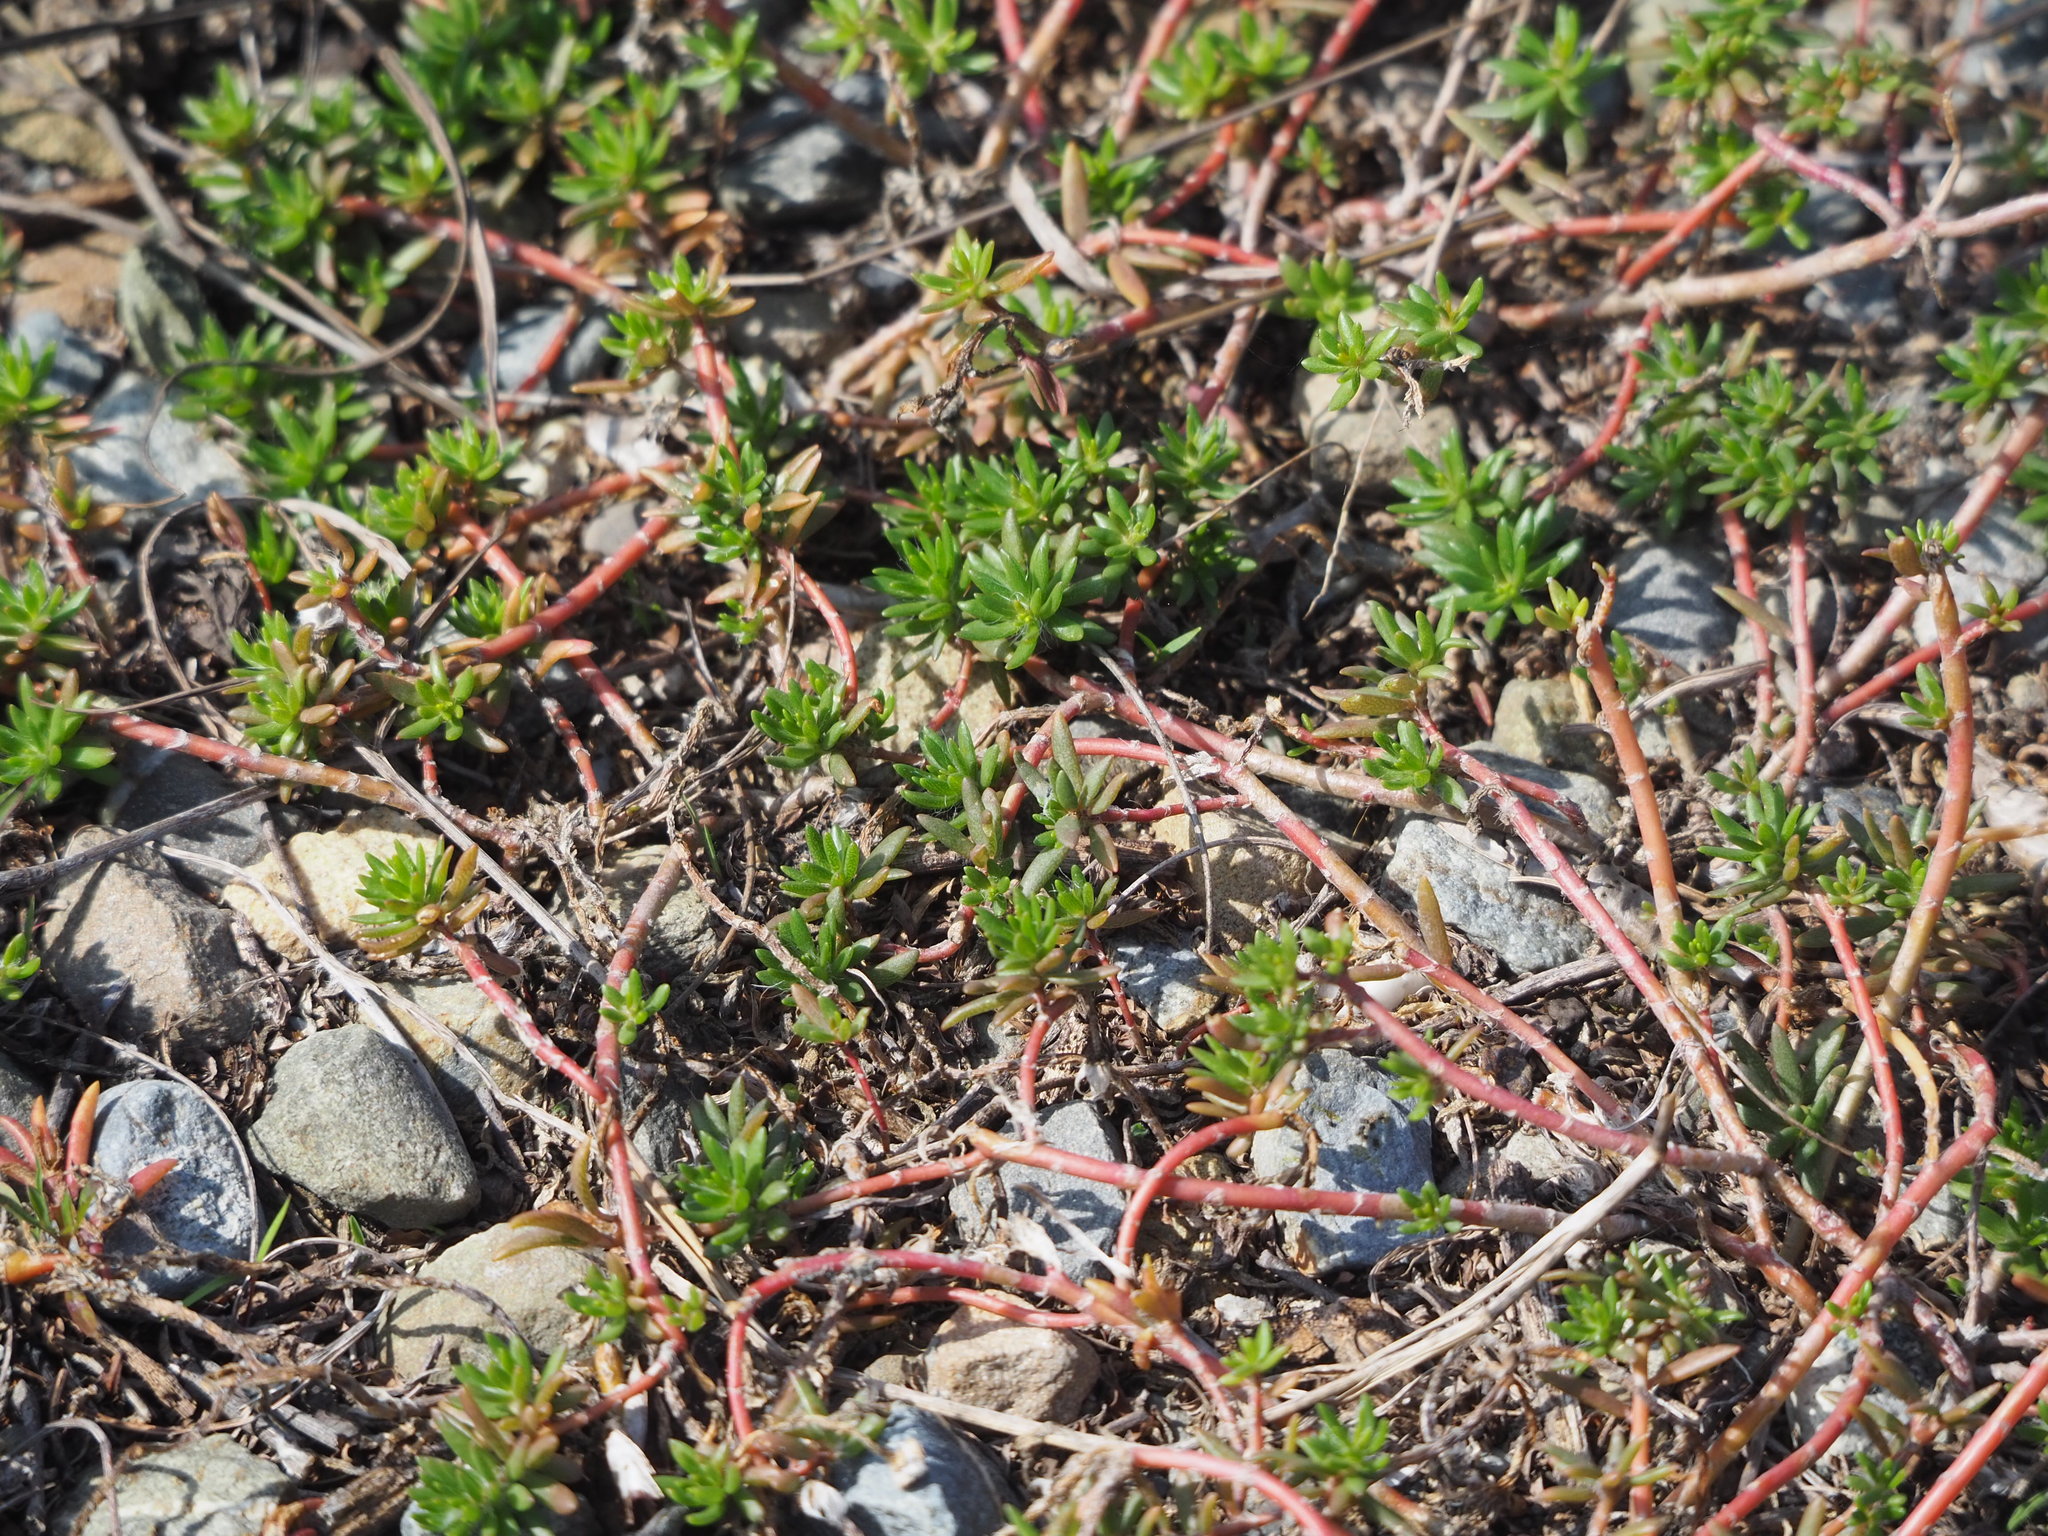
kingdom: Plantae
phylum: Tracheophyta
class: Magnoliopsida
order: Caryophyllales
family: Portulacaceae
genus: Portulaca
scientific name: Portulaca pilosa
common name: Kiss me quick
